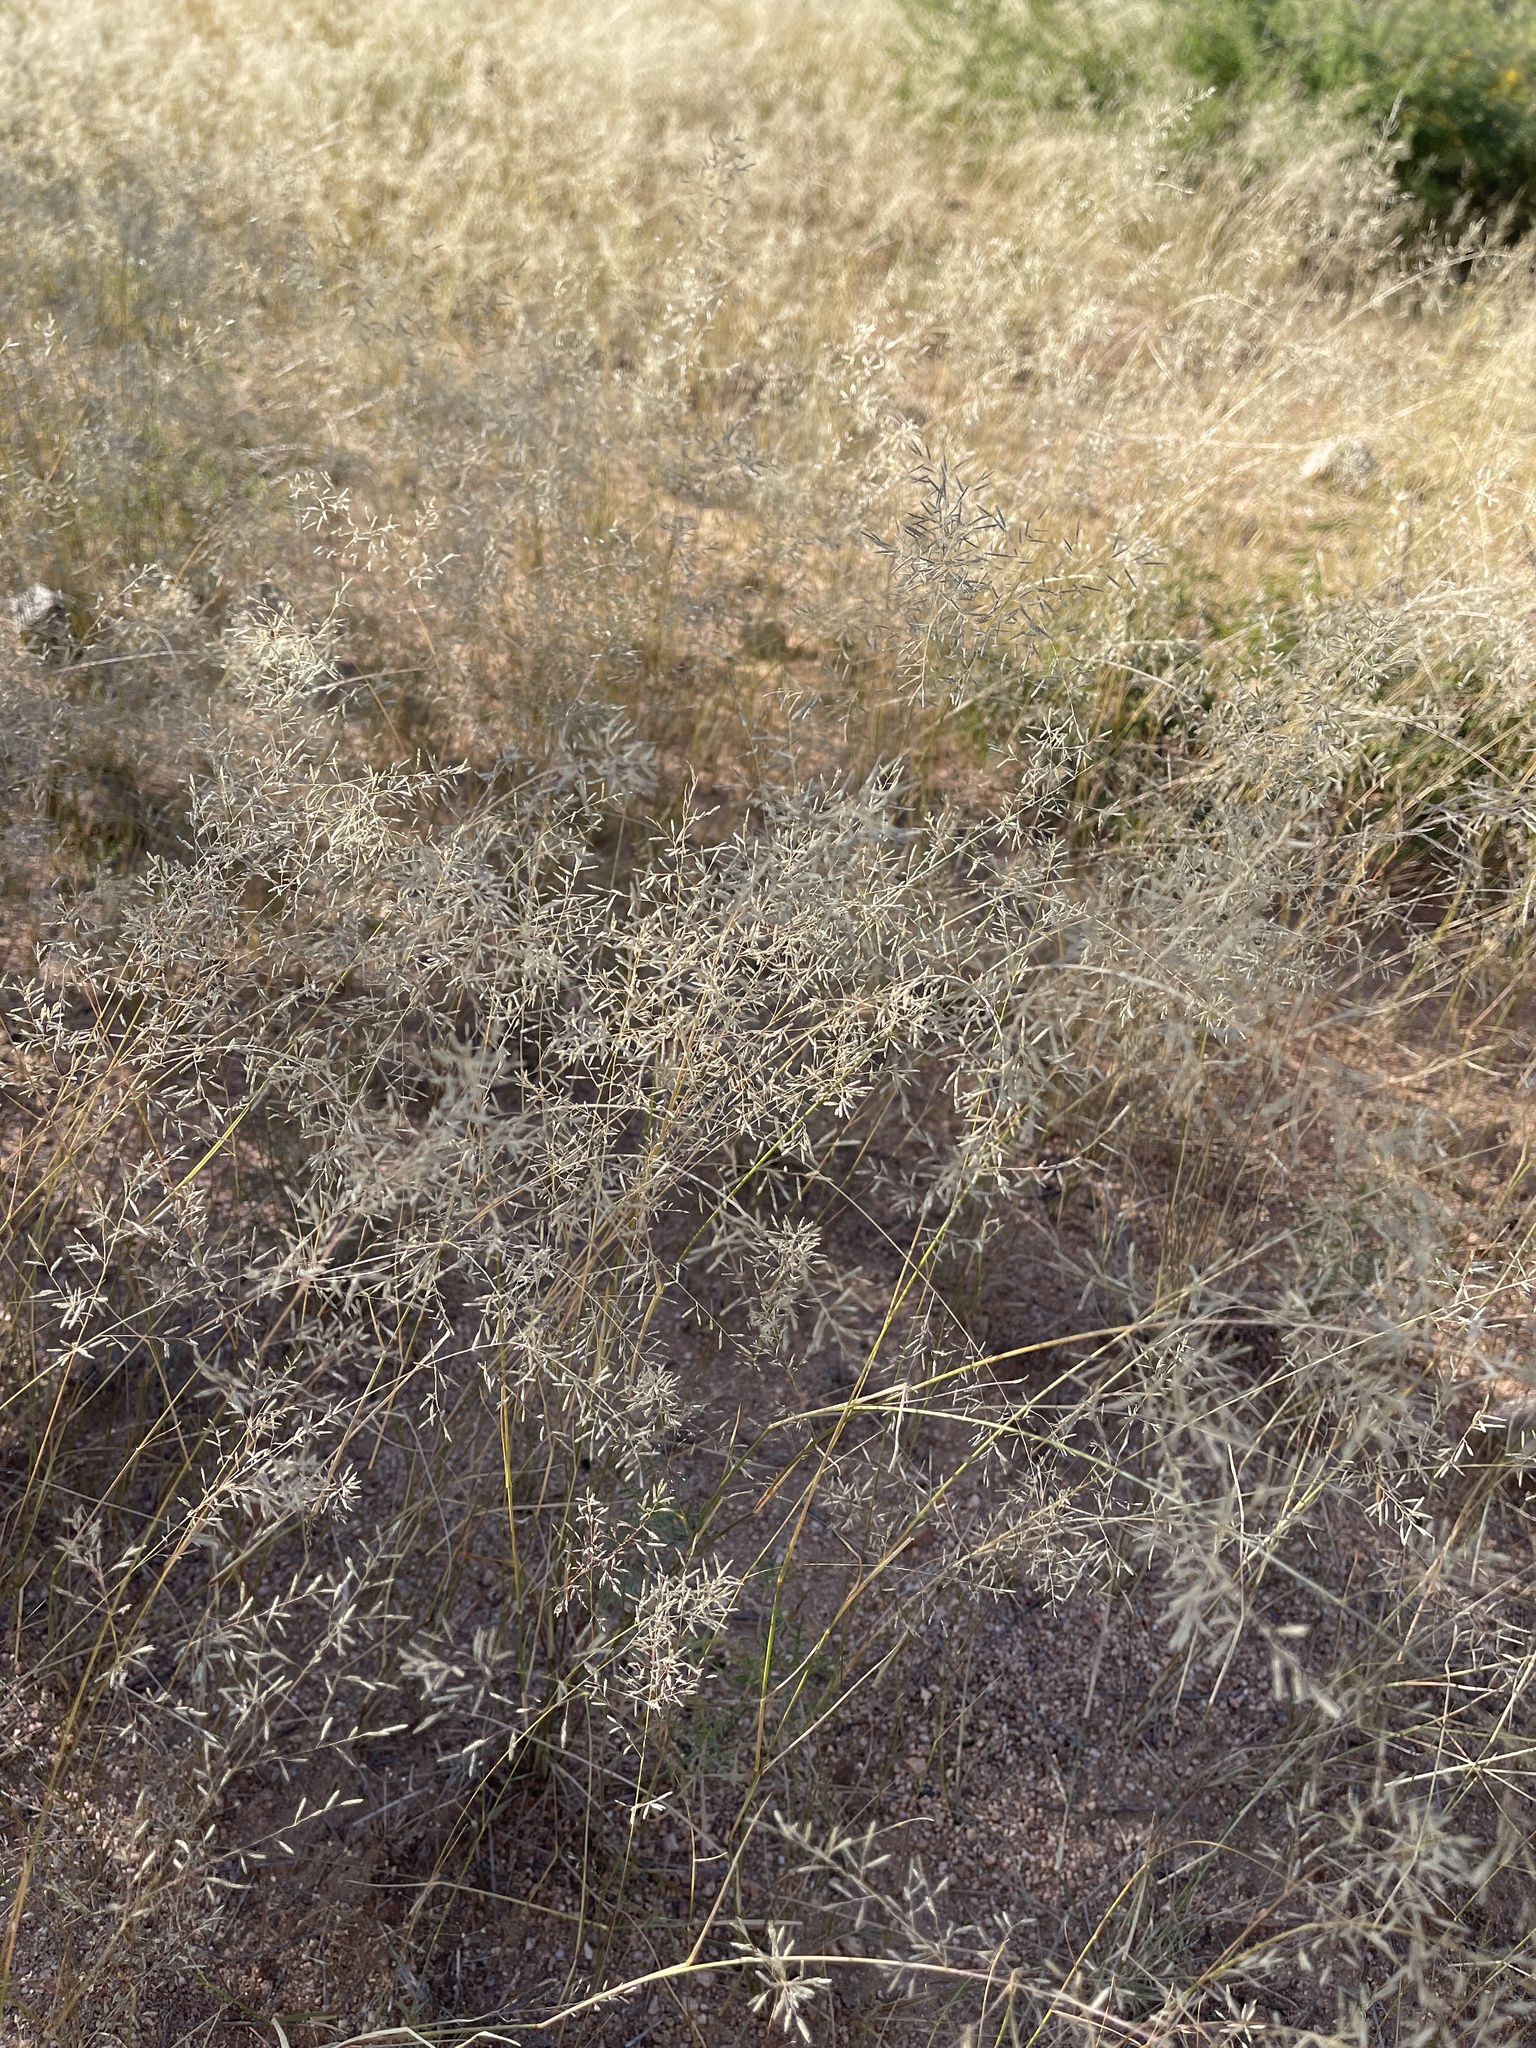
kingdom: Plantae
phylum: Tracheophyta
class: Liliopsida
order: Poales
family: Poaceae
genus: Eragrostis
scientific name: Eragrostis lehmanniana
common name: Lehmann lovegrass
